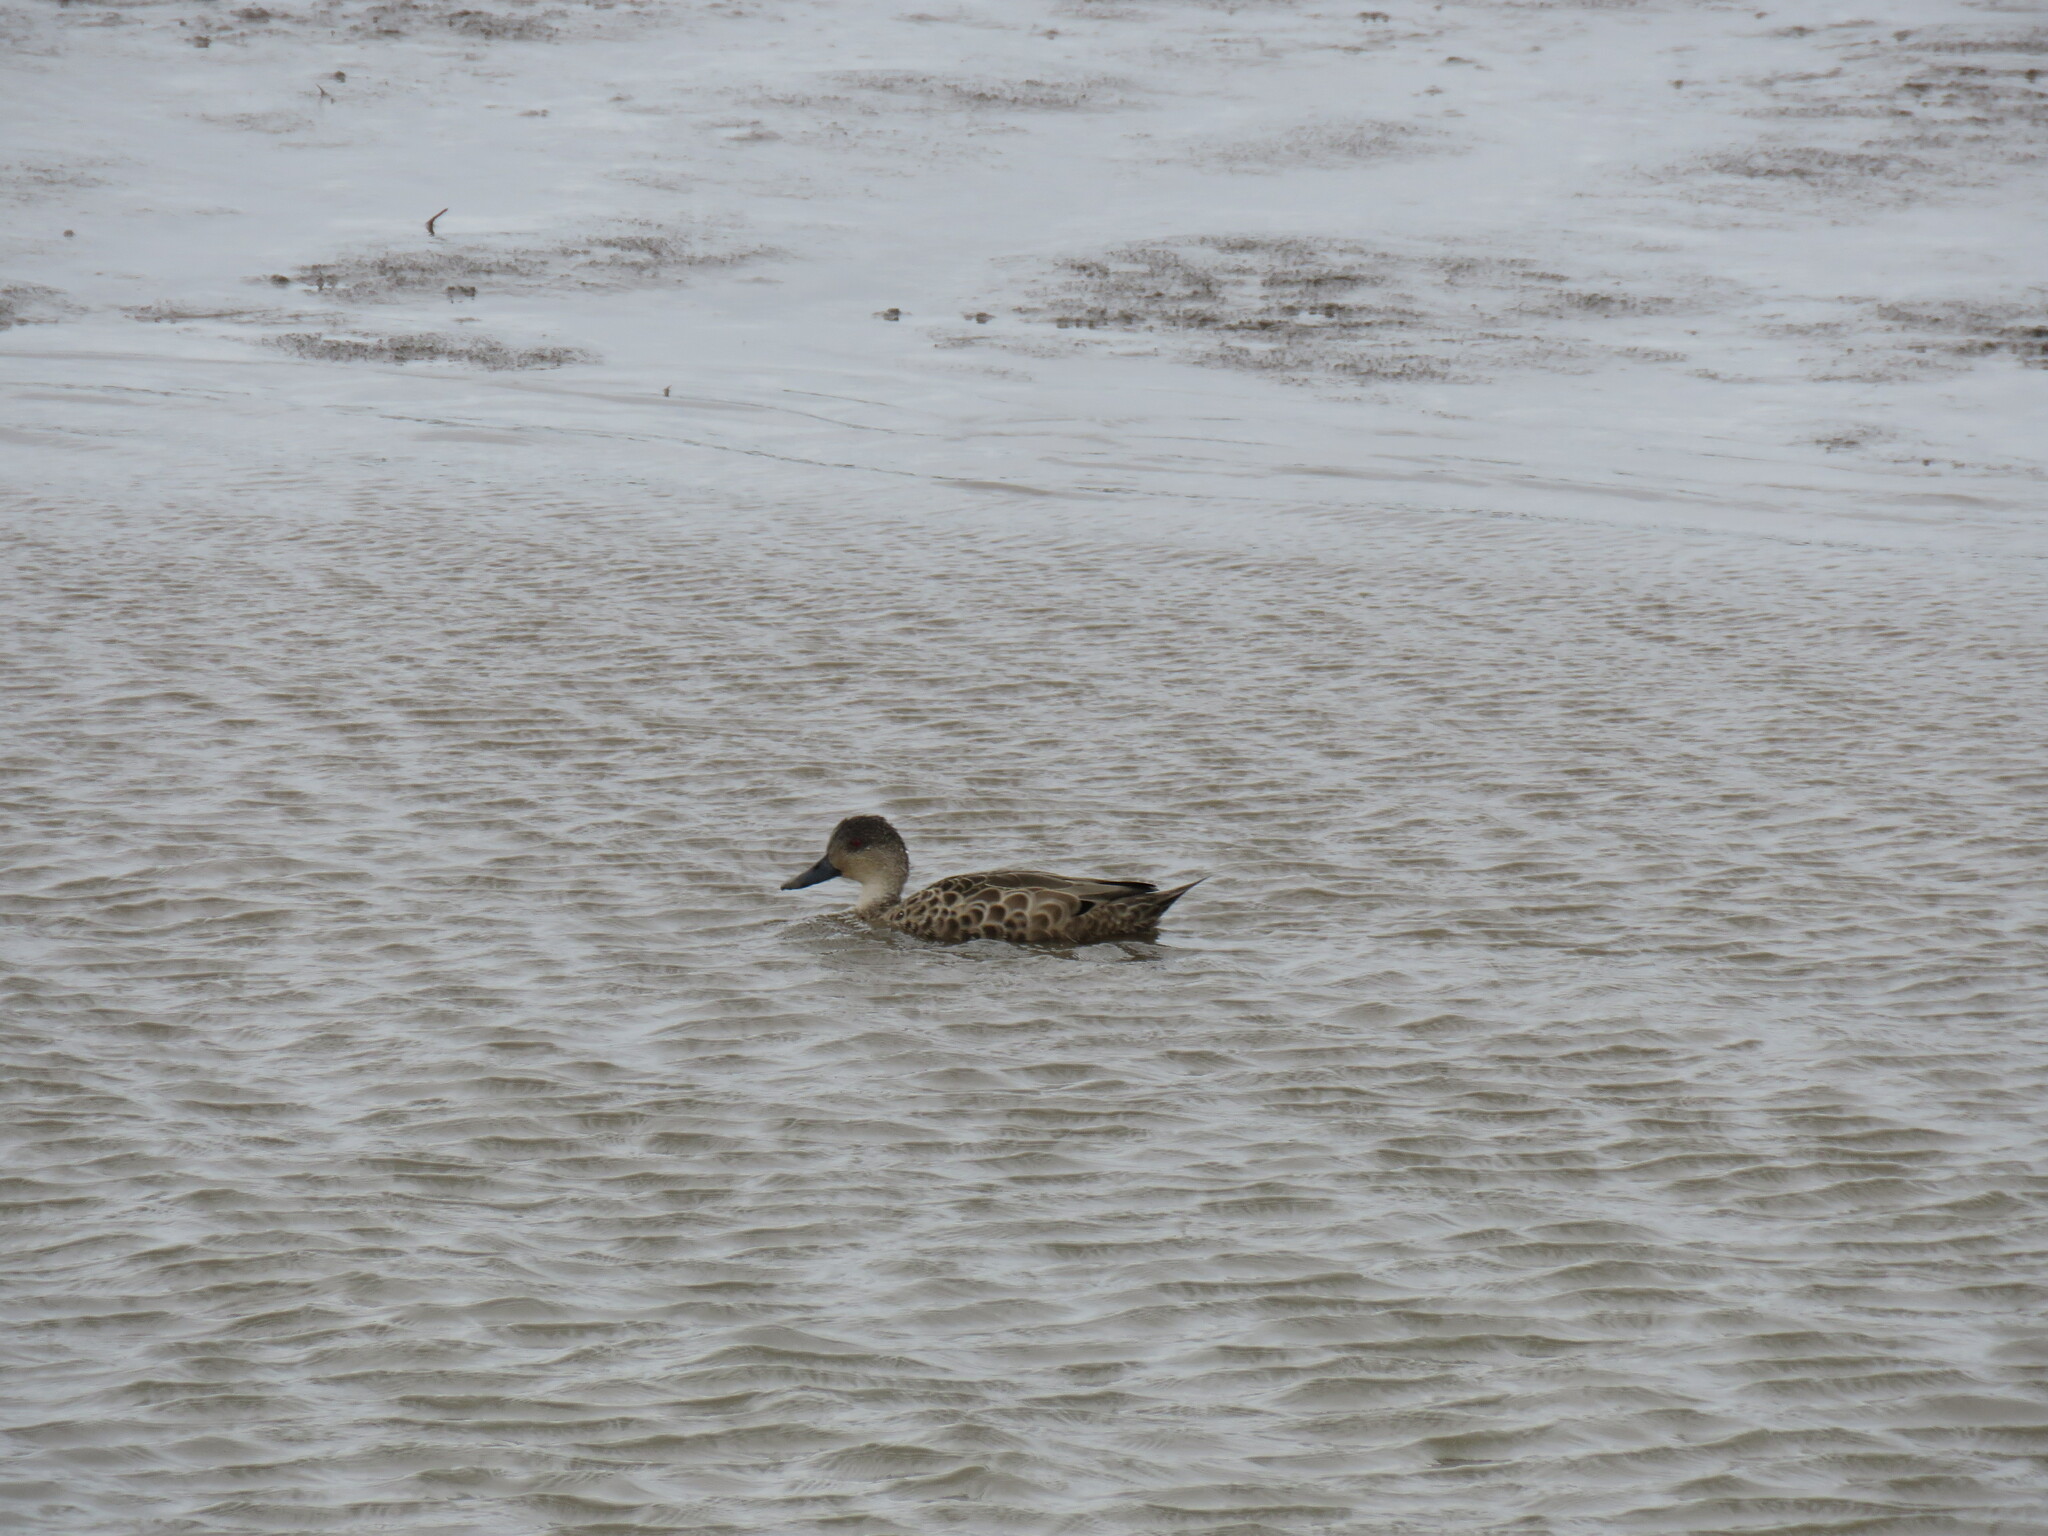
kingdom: Animalia
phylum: Chordata
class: Aves
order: Anseriformes
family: Anatidae
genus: Anas
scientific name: Anas gracilis
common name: Grey teal
